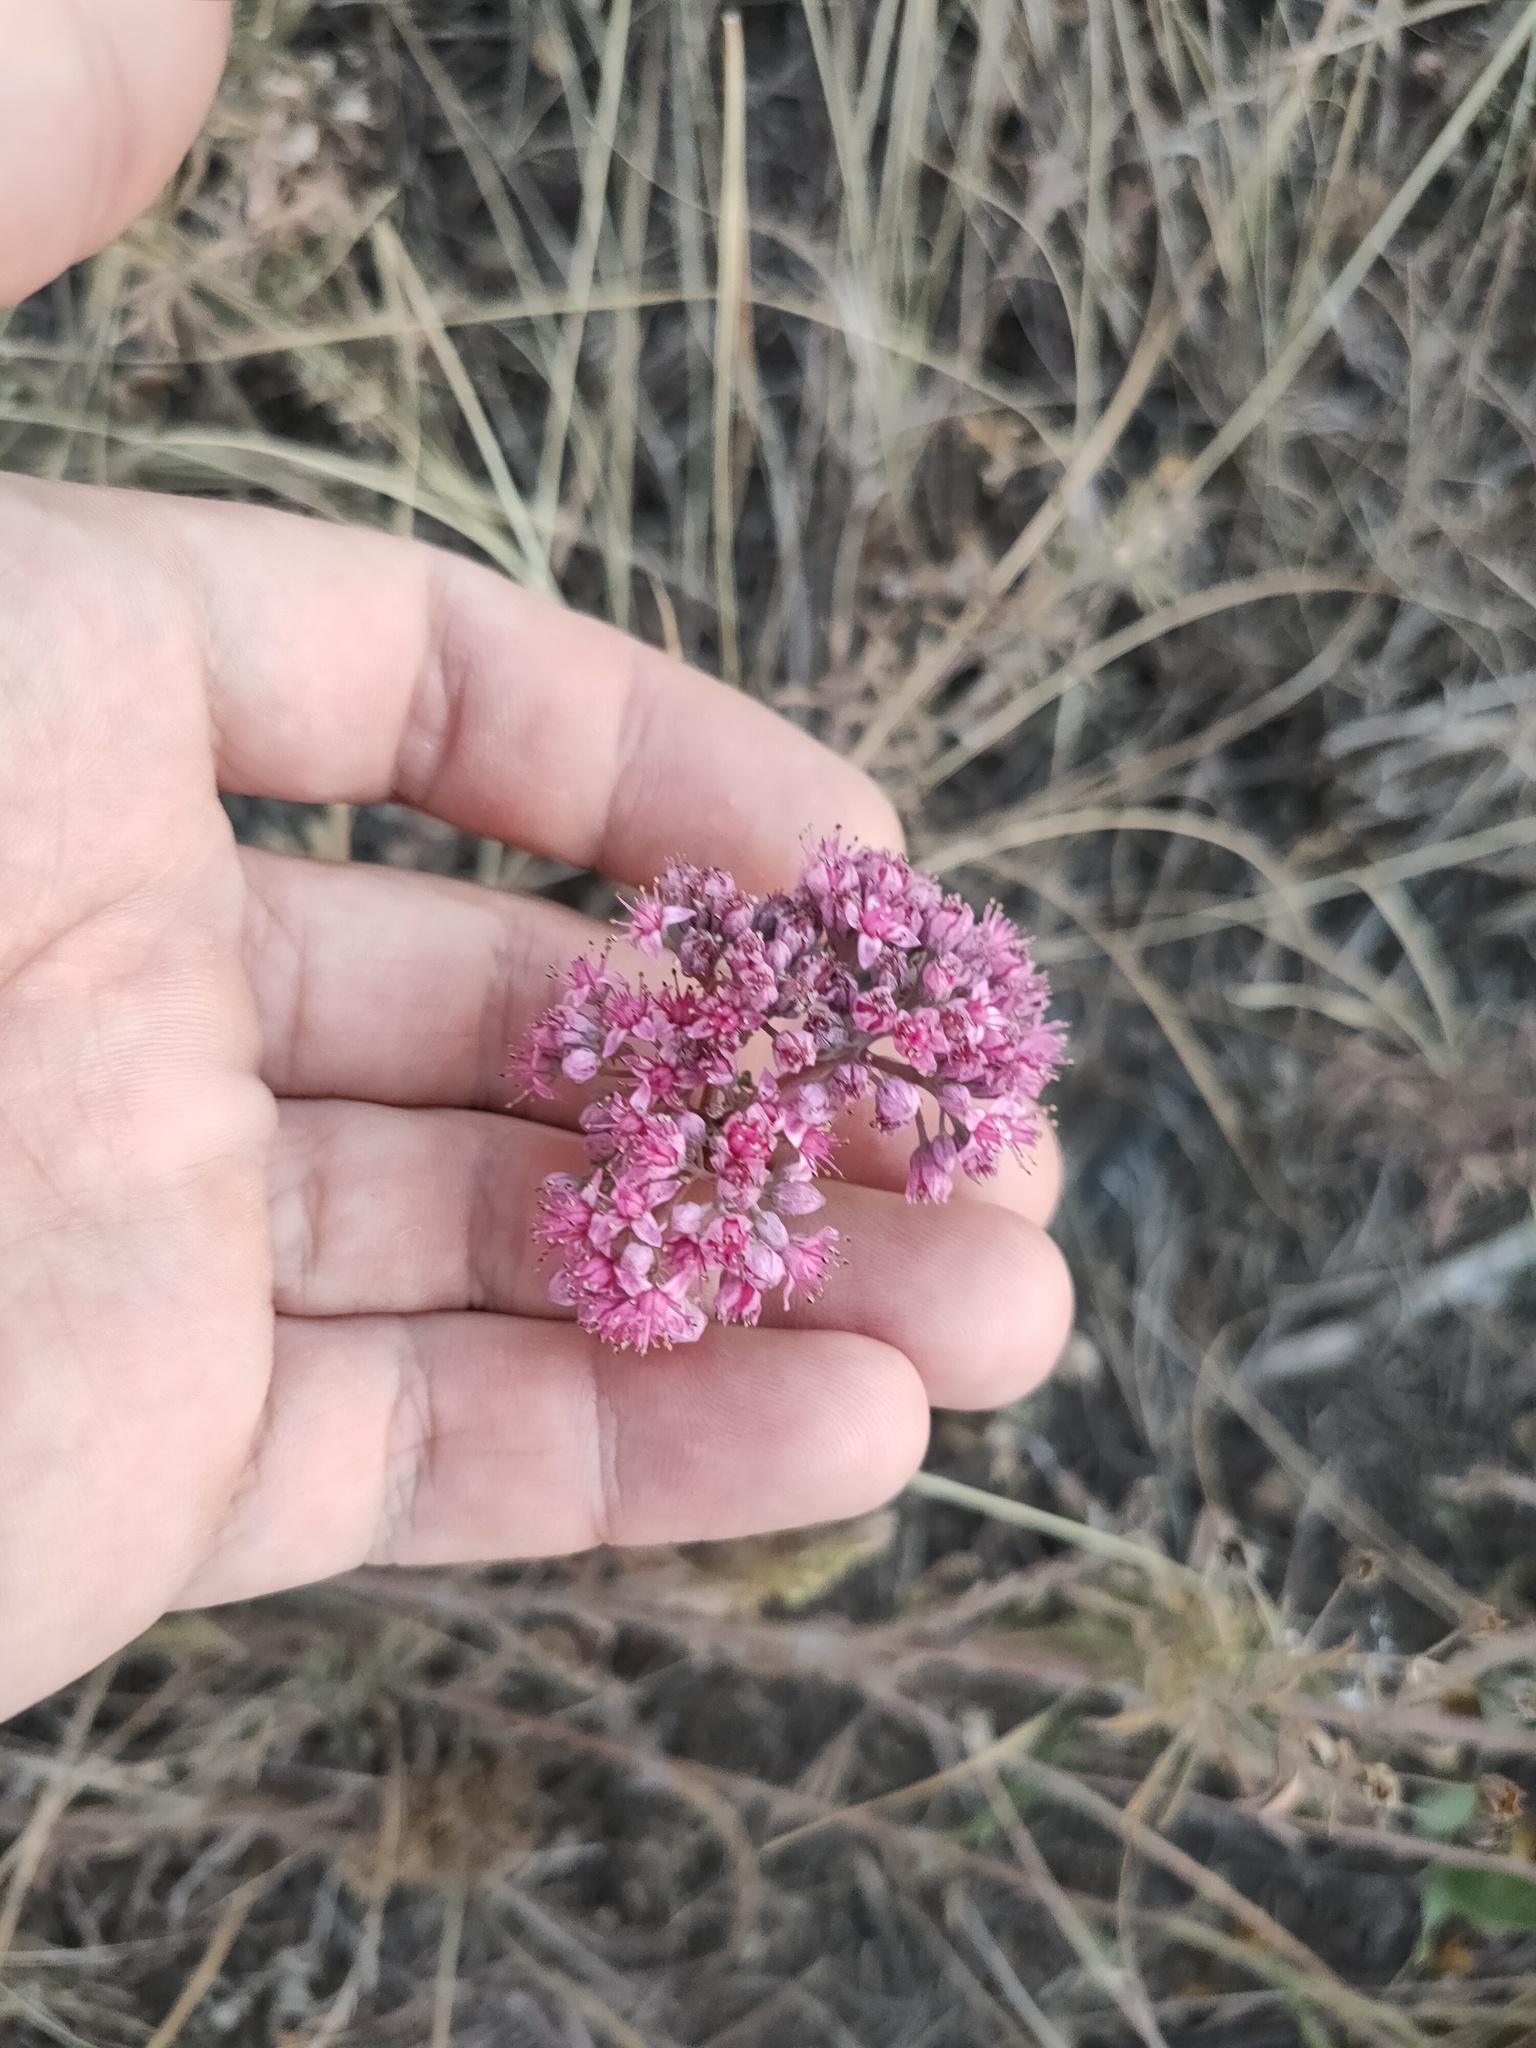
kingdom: Plantae
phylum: Tracheophyta
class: Magnoliopsida
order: Saxifragales
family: Crassulaceae
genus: Hylotelephium
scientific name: Hylotelephium telephium
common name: Live-forever
